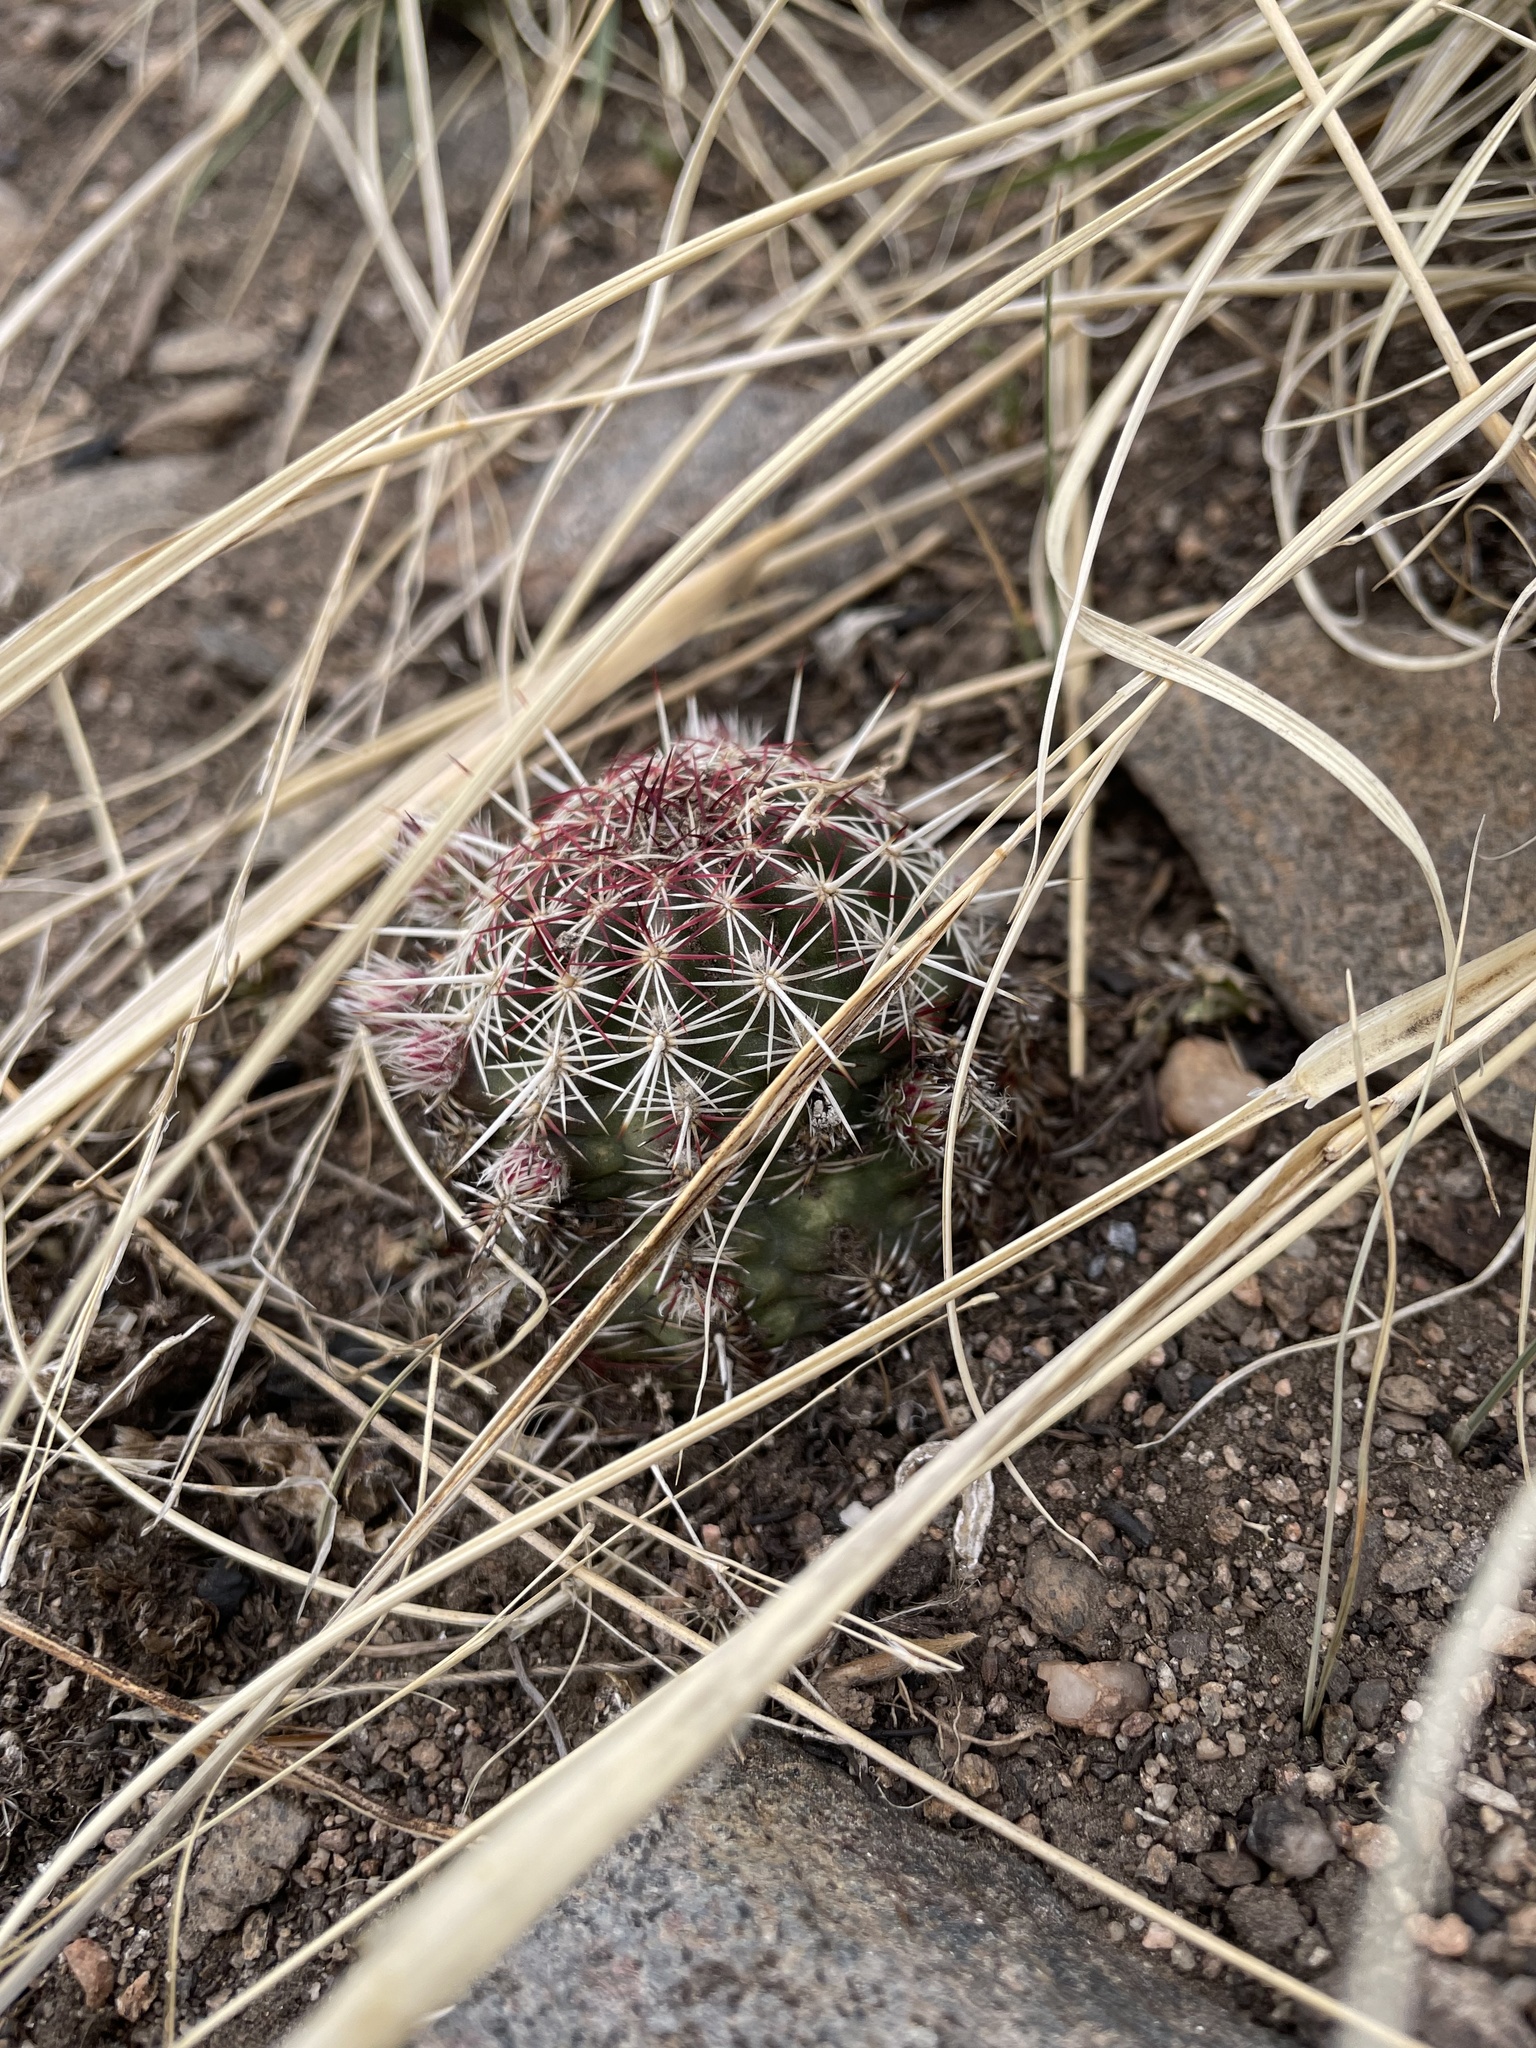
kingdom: Plantae
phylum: Tracheophyta
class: Magnoliopsida
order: Caryophyllales
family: Cactaceae
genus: Echinocereus
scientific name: Echinocereus viridiflorus
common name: Nylon hedgehog cactus
